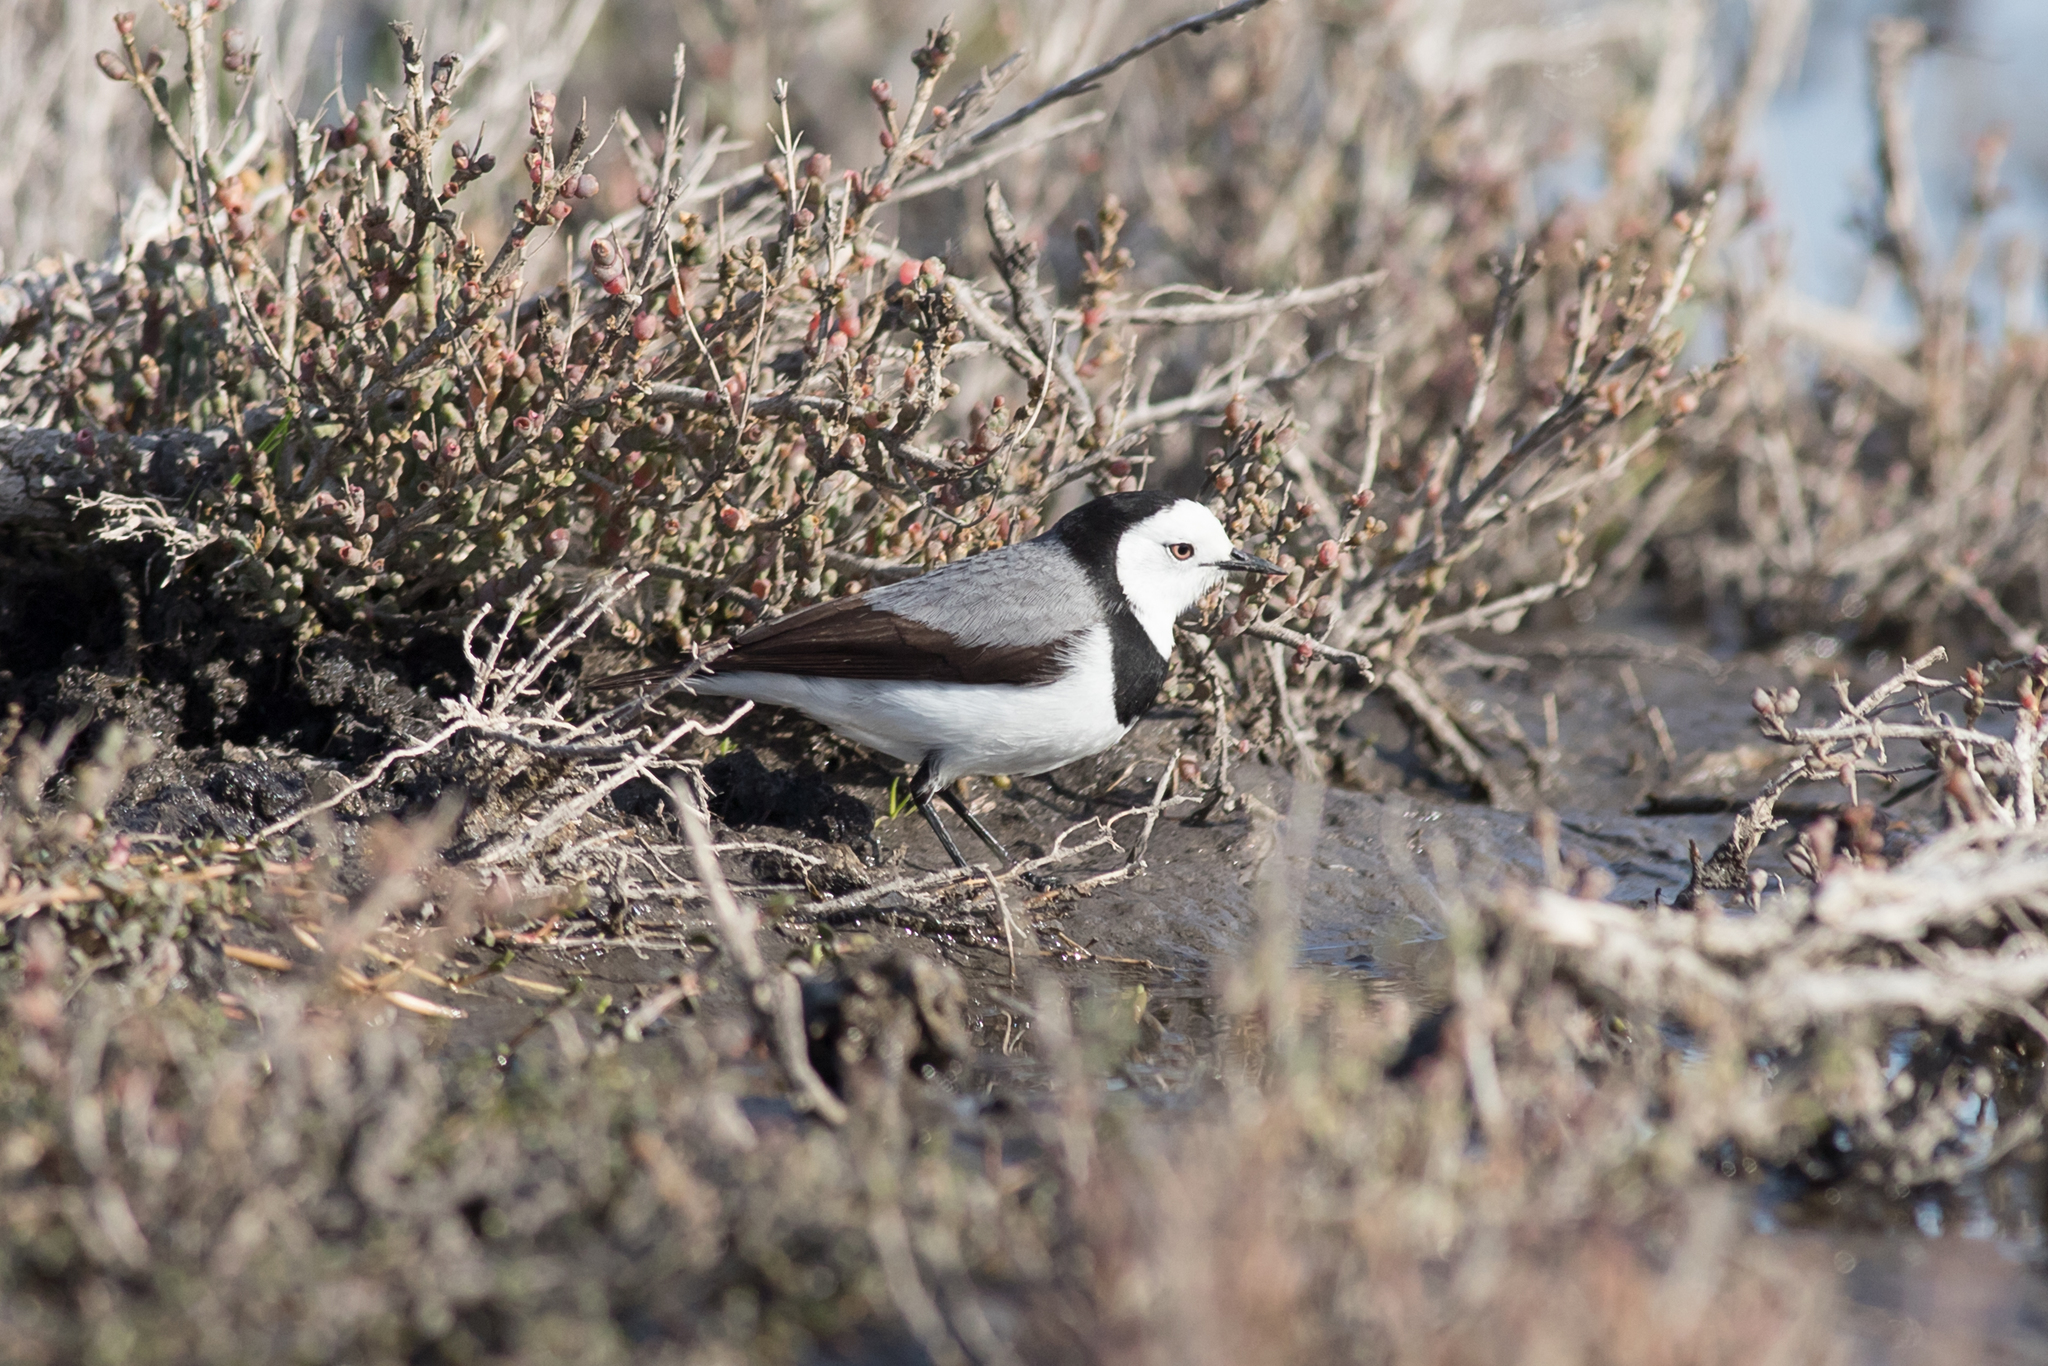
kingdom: Animalia
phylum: Chordata
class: Aves
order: Passeriformes
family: Meliphagidae
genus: Epthianura
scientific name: Epthianura albifrons
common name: White-fronted chat
